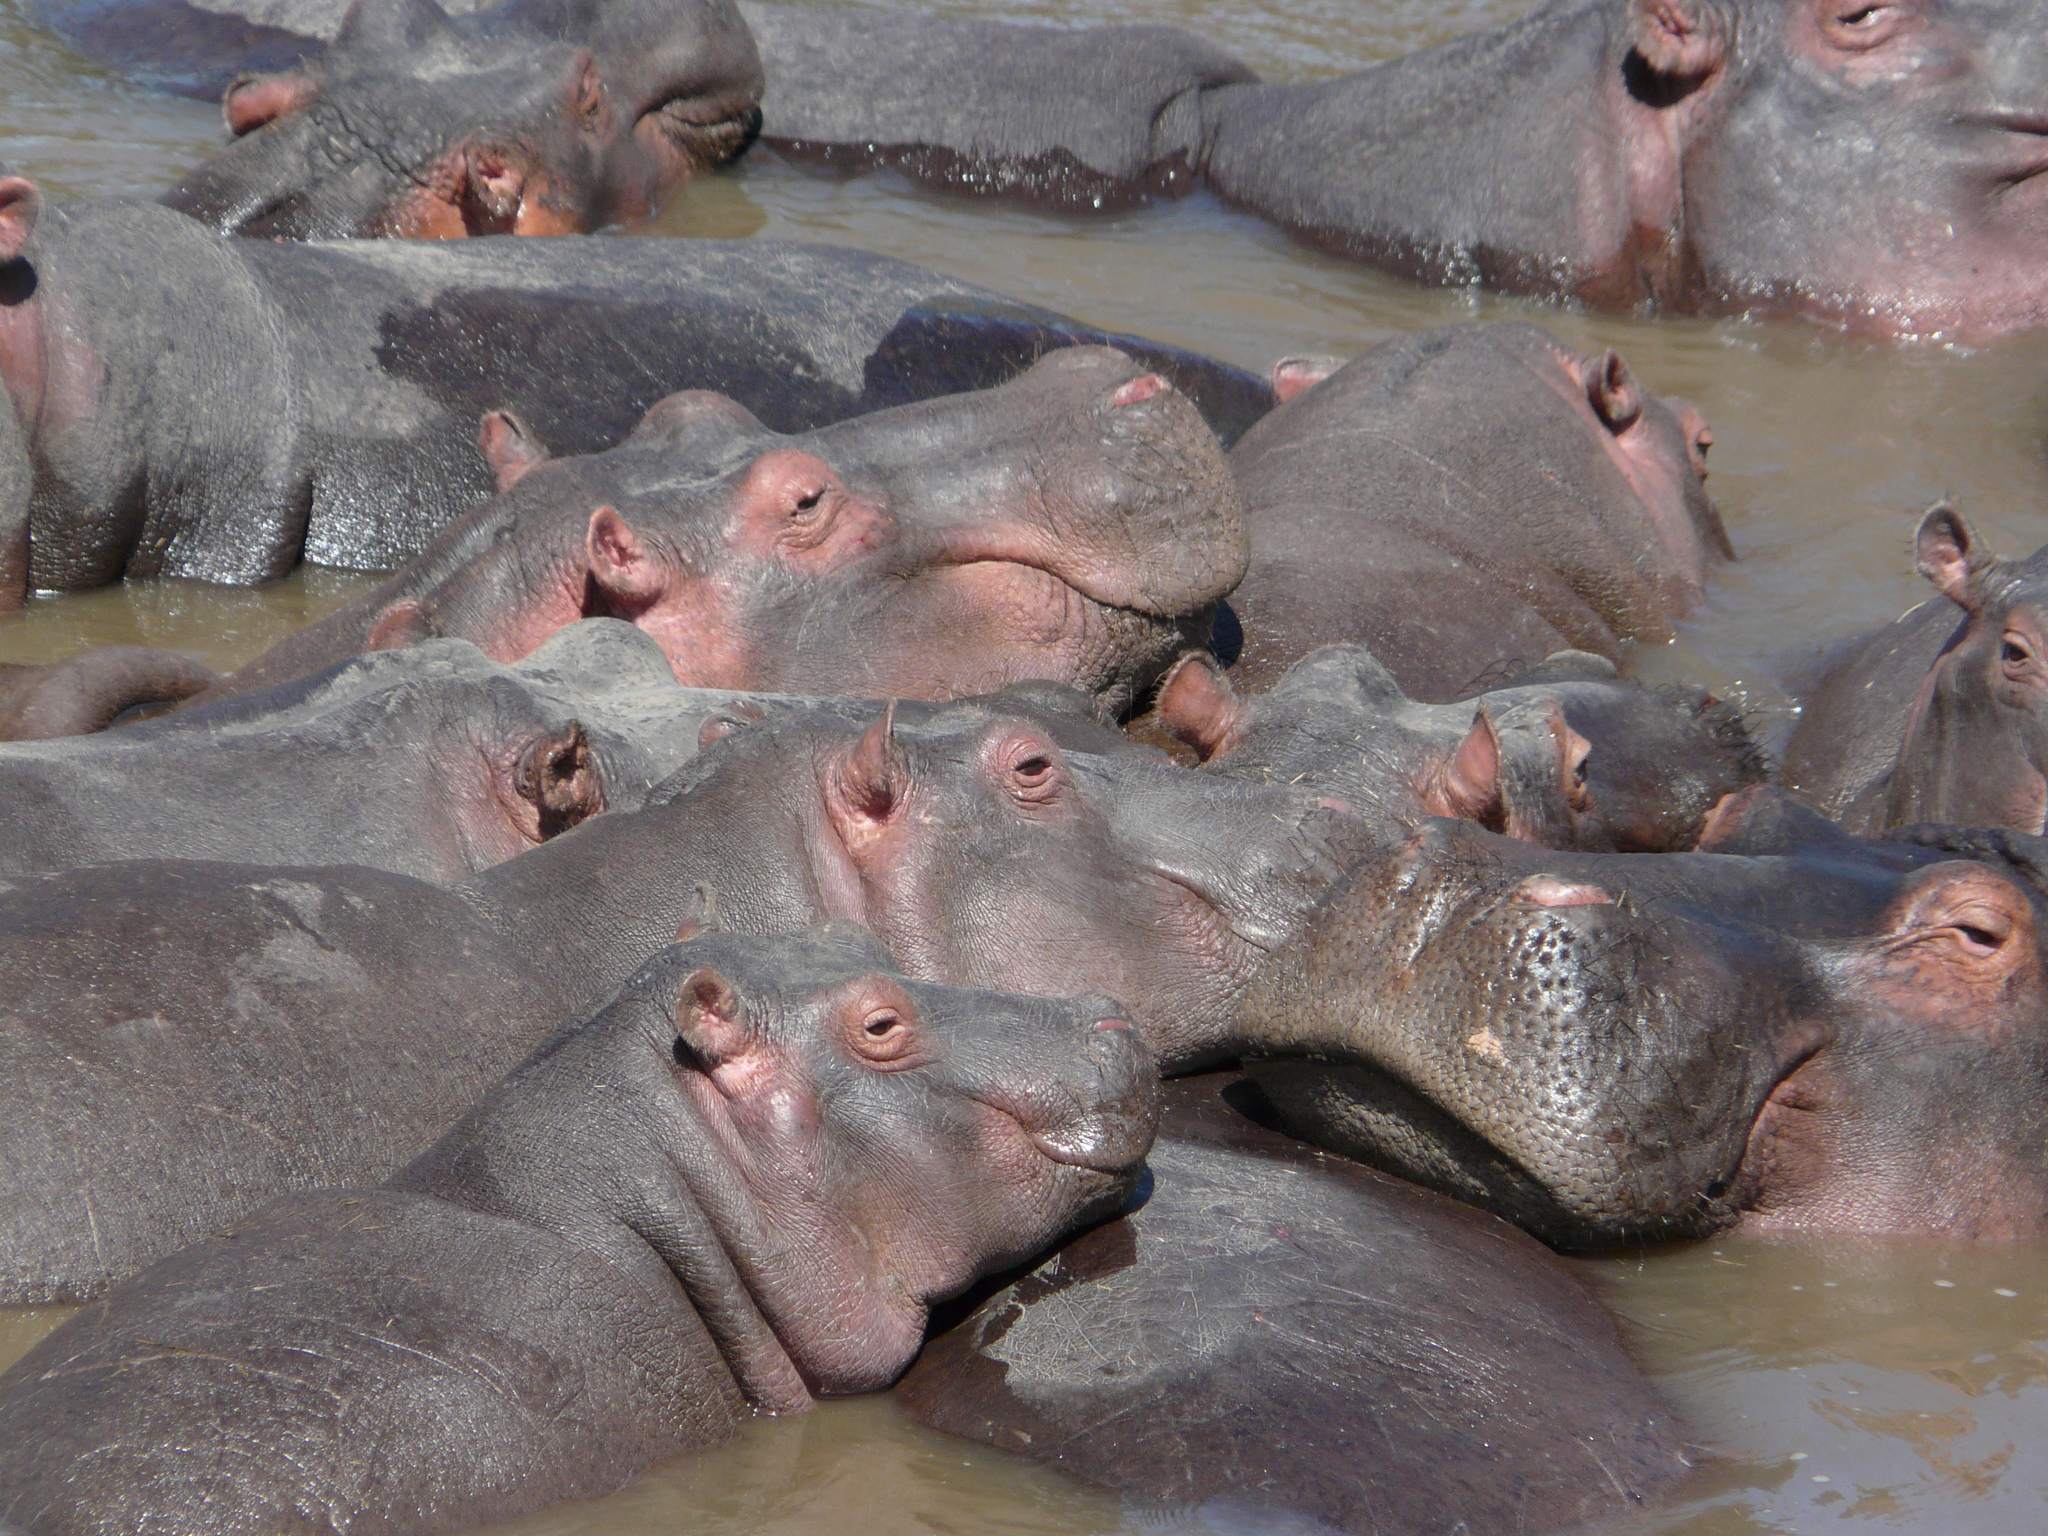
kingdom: Animalia
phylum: Chordata
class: Mammalia
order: Artiodactyla
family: Hippopotamidae
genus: Hippopotamus
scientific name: Hippopotamus amphibius
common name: Common hippopotamus
